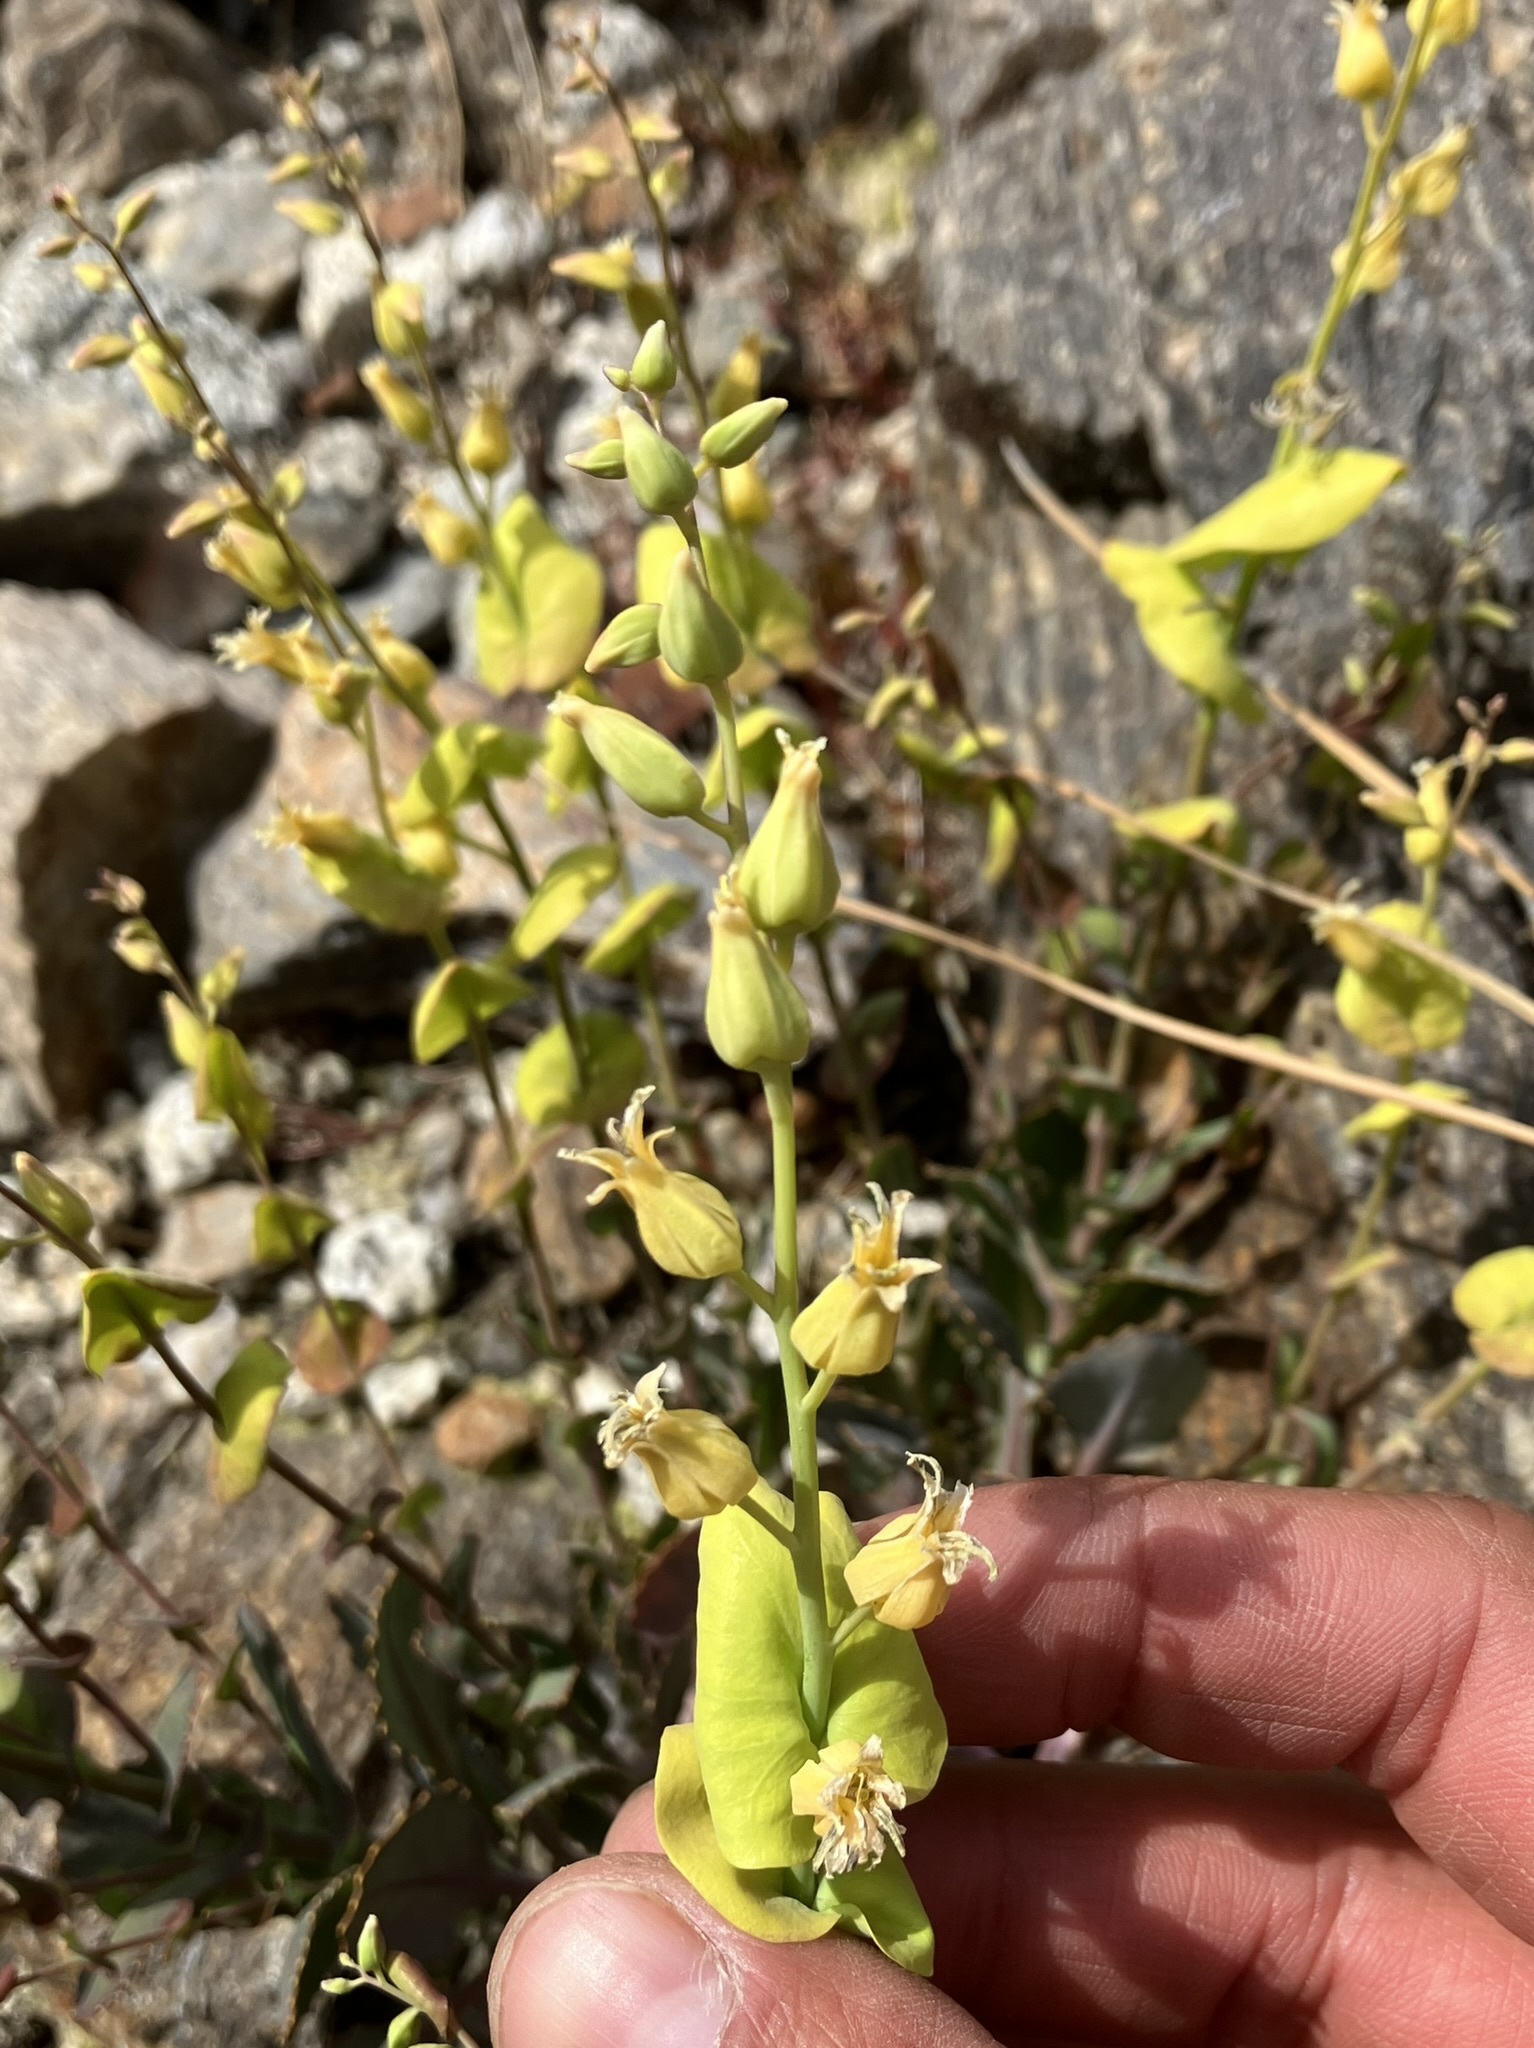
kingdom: Plantae
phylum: Tracheophyta
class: Magnoliopsida
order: Brassicales
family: Brassicaceae
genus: Streptanthus
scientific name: Streptanthus tortuosus
